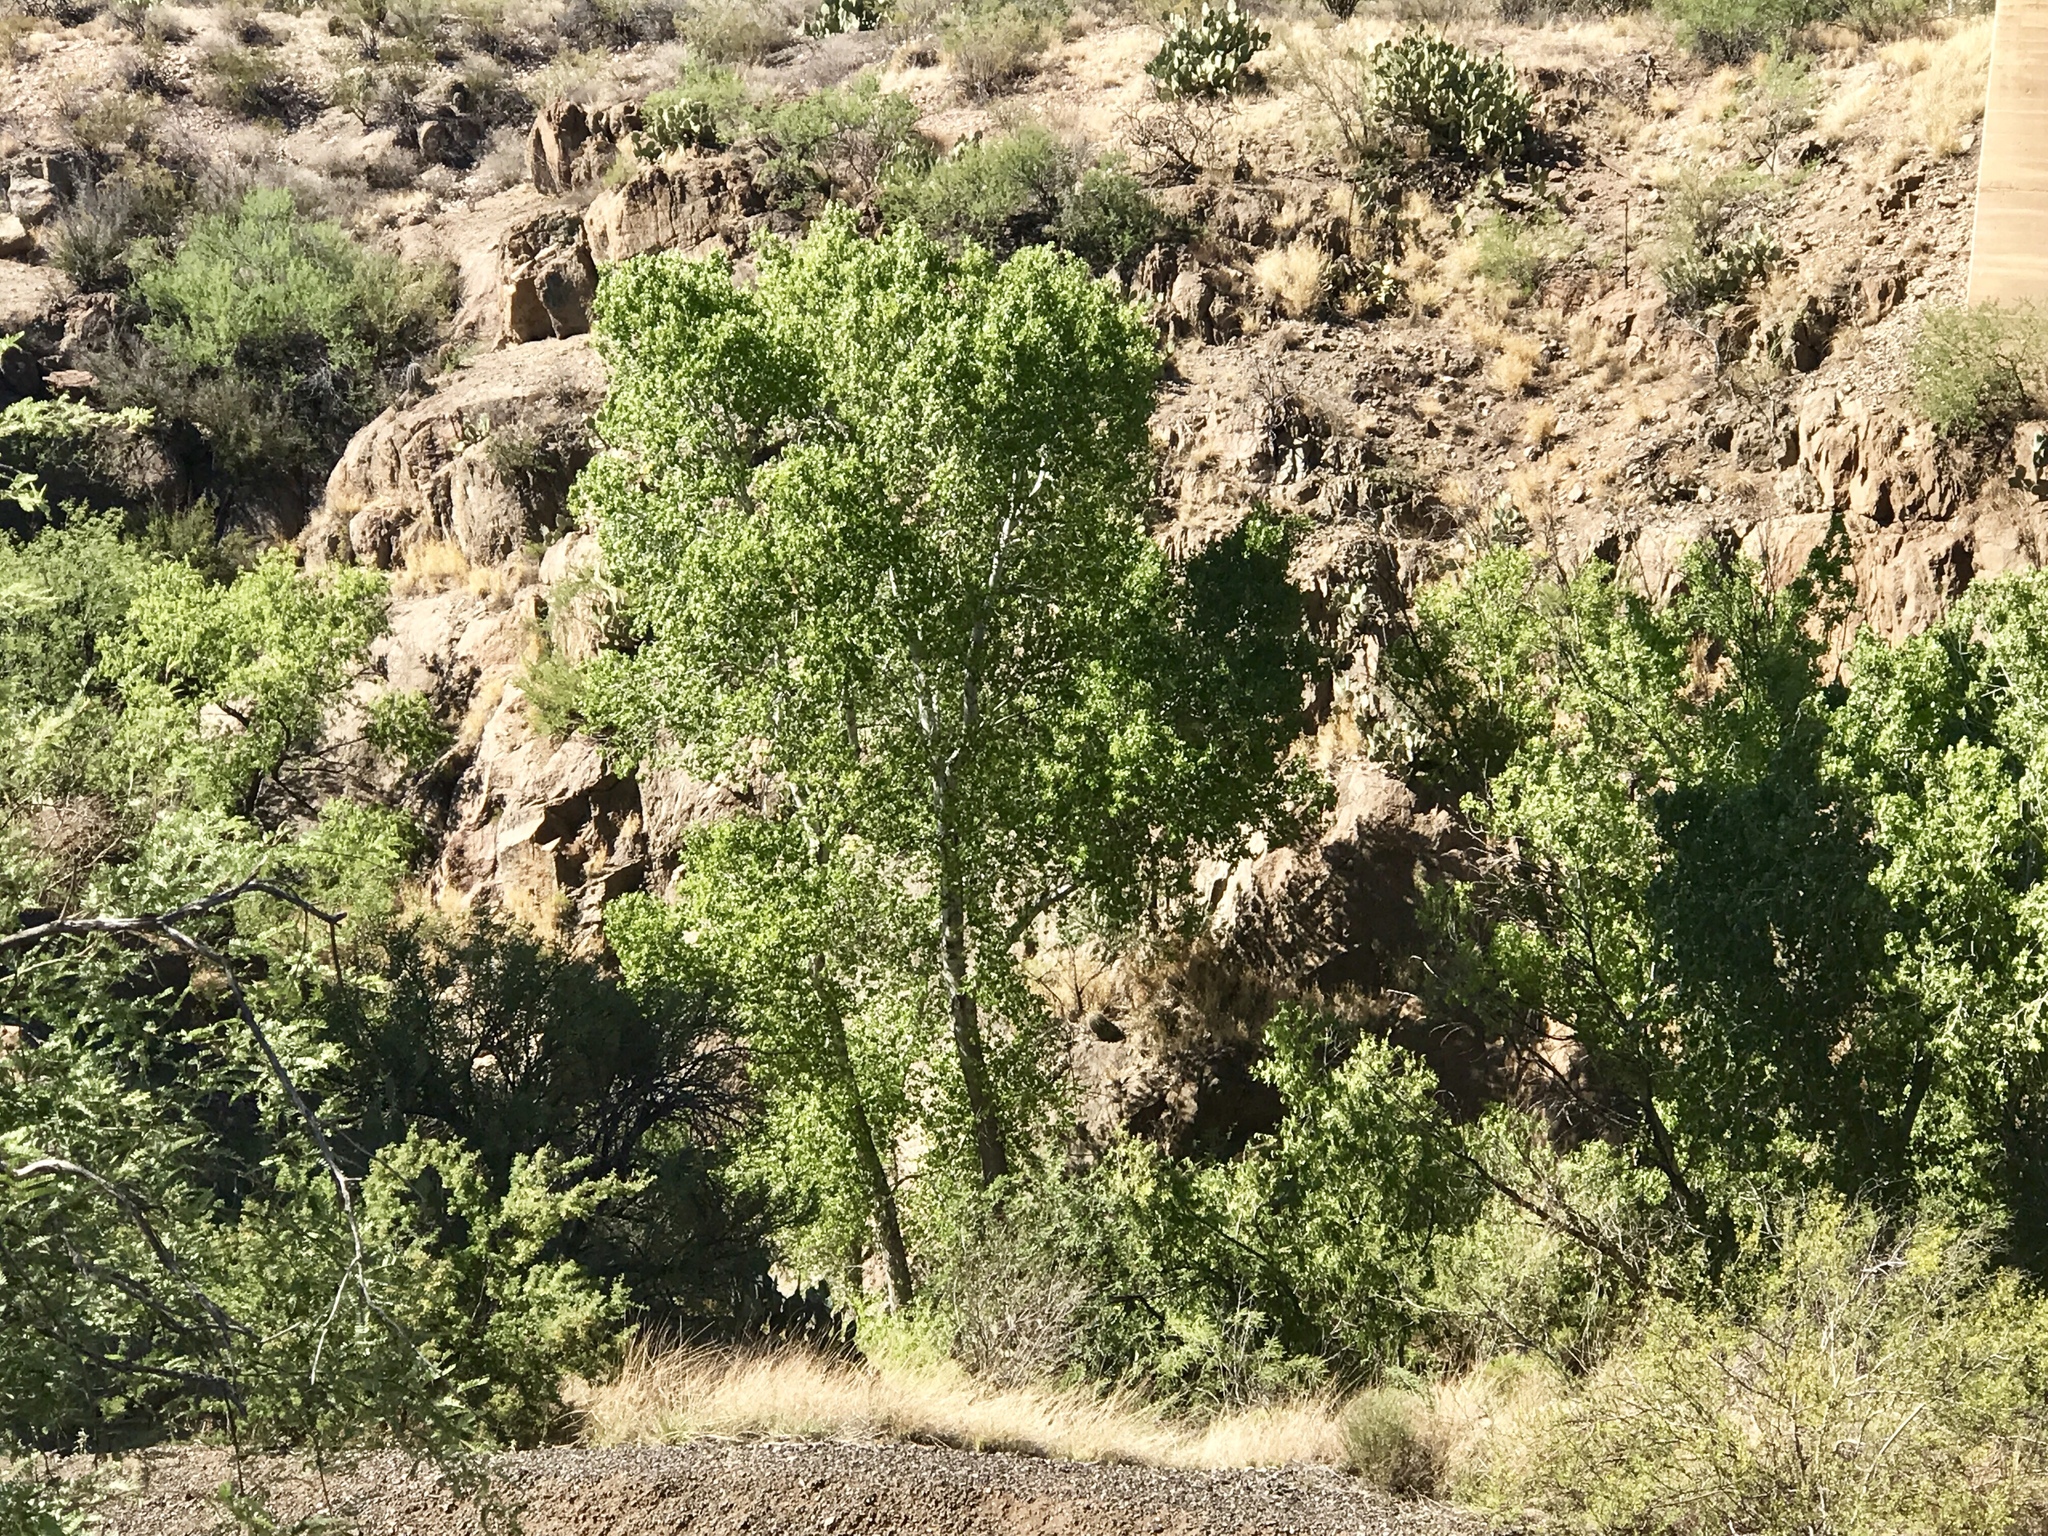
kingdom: Plantae
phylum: Tracheophyta
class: Magnoliopsida
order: Malpighiales
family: Salicaceae
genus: Populus
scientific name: Populus fremontii
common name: Fremont's cottonwood
